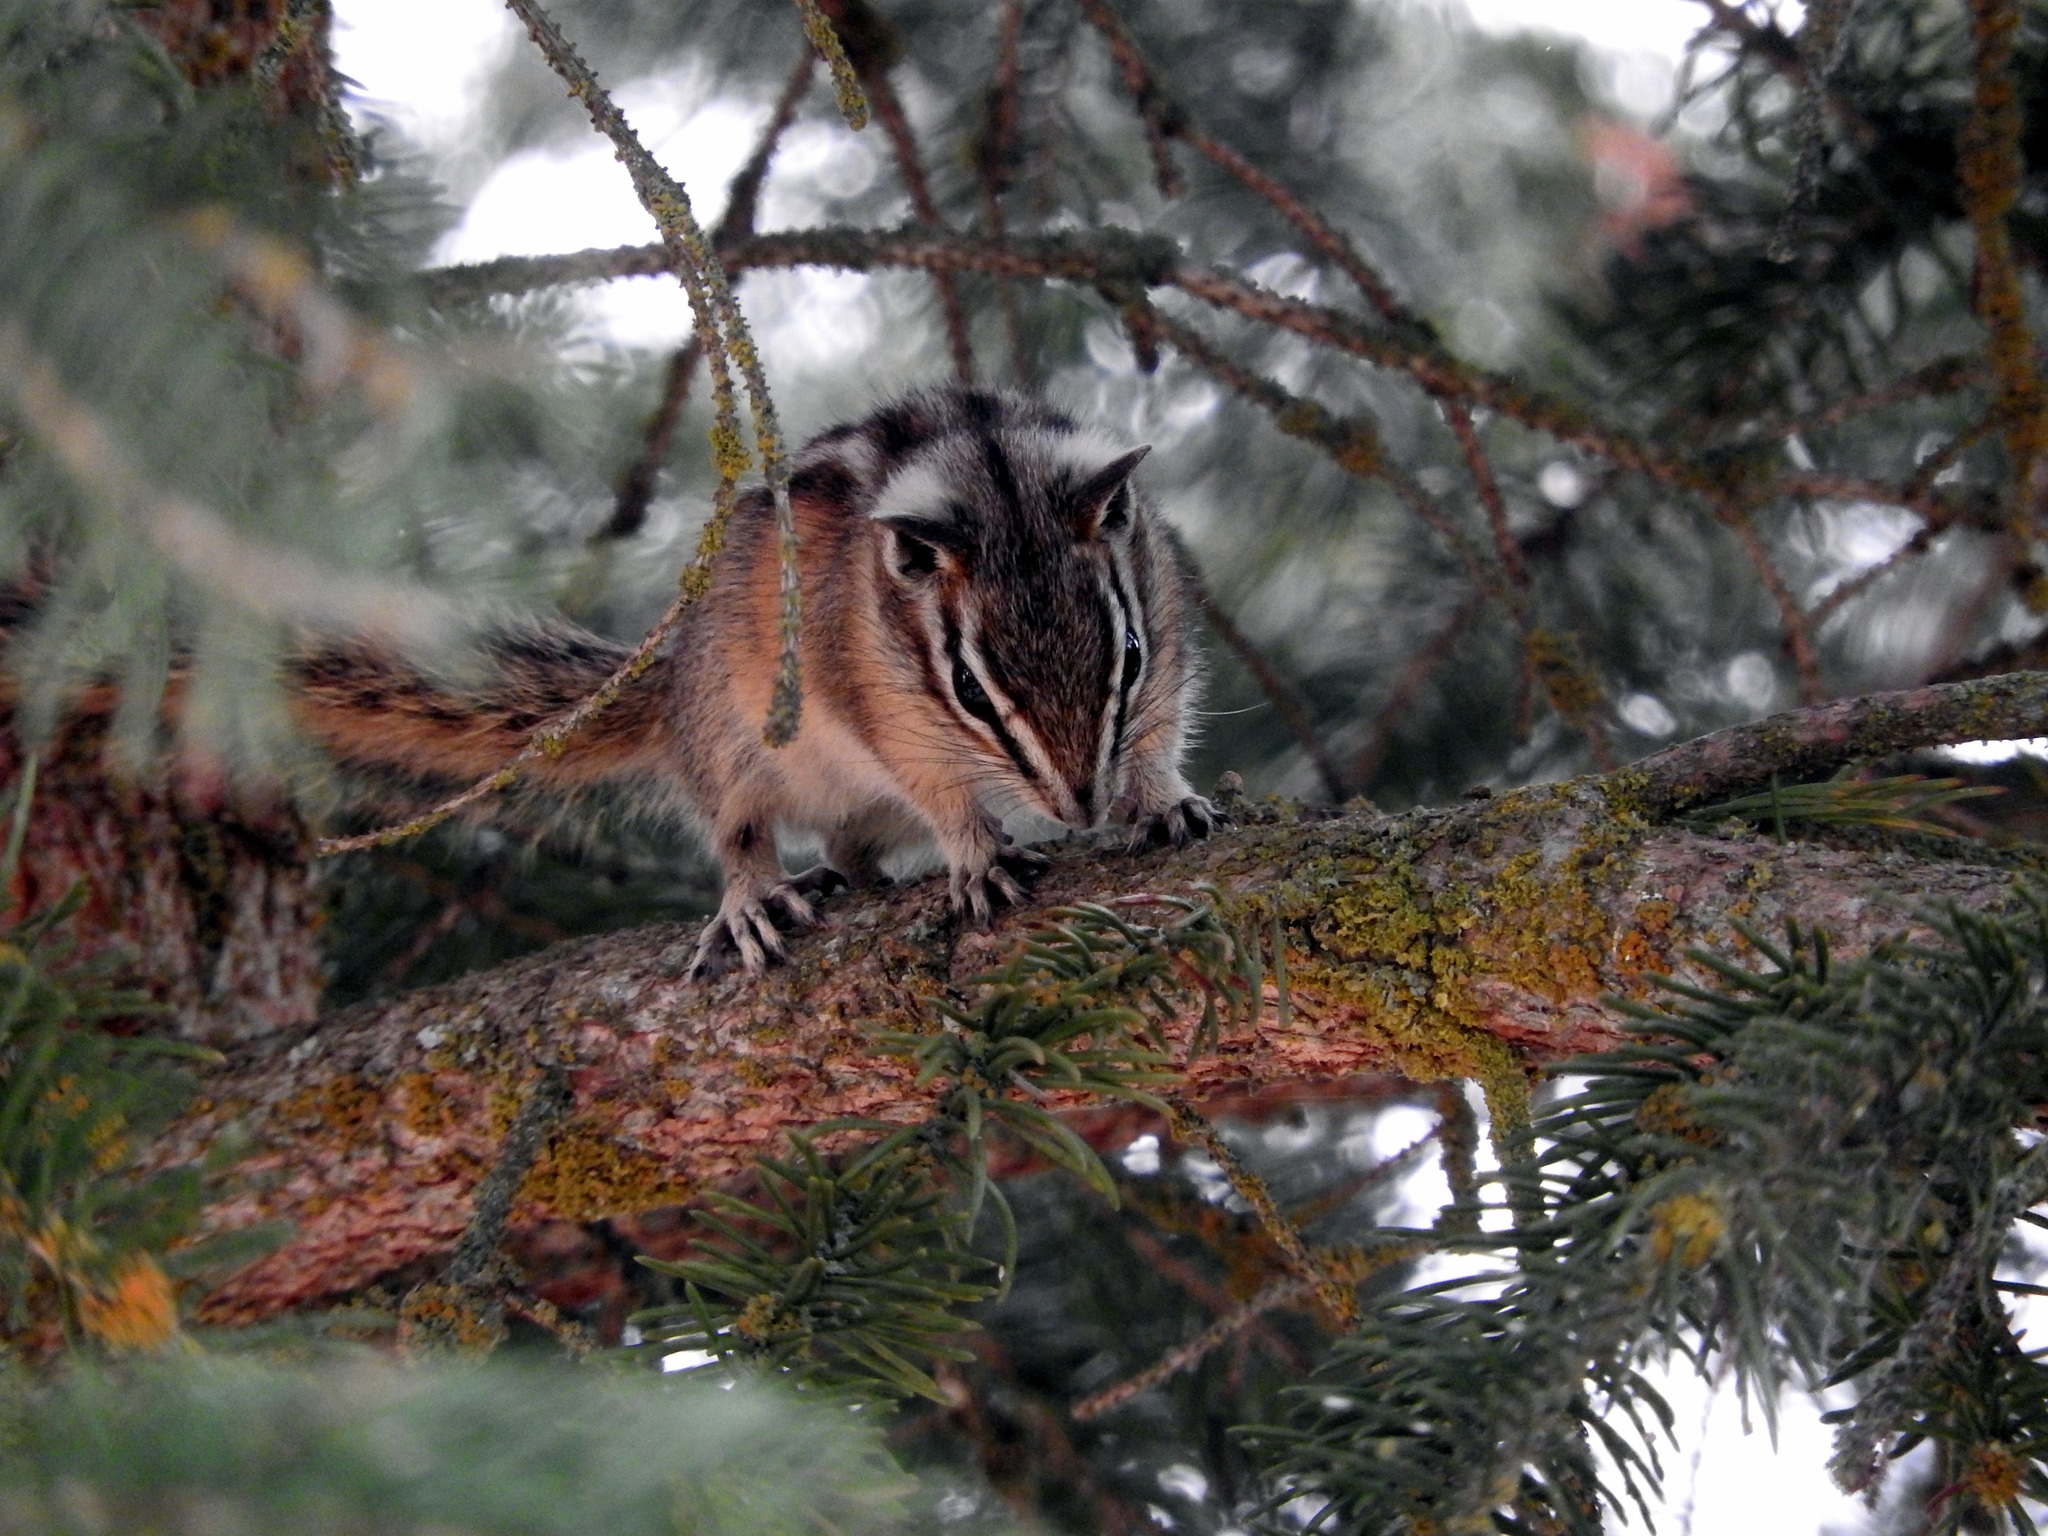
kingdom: Animalia
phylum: Chordata
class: Mammalia
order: Rodentia
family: Sciuridae
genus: Neotamias
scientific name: Neotamias ruficaudus
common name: Red-tailed chipmunk
